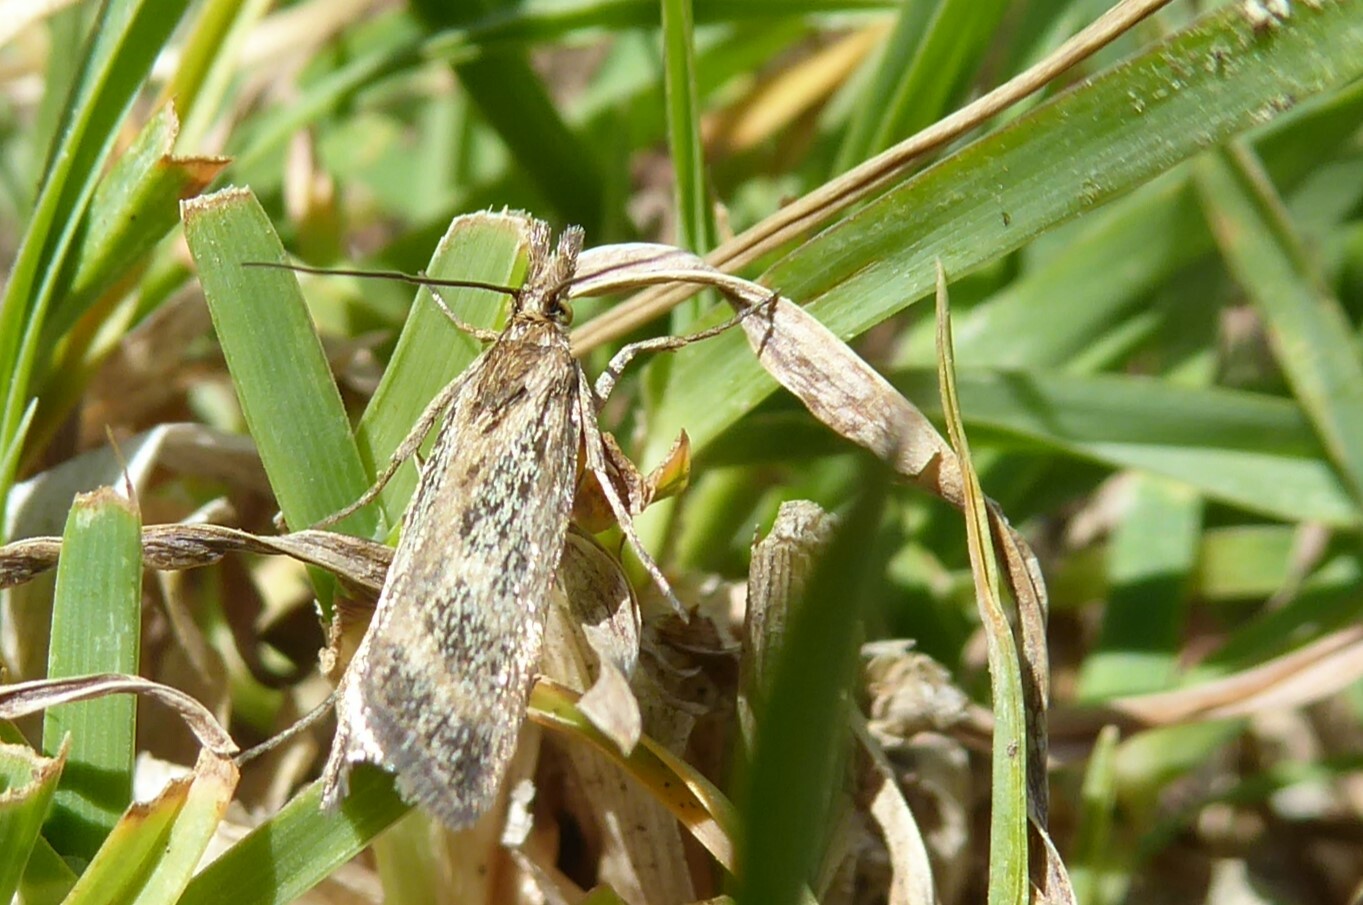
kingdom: Animalia
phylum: Arthropoda
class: Insecta
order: Lepidoptera
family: Crambidae
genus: Orocrambus
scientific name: Orocrambus corruptus
